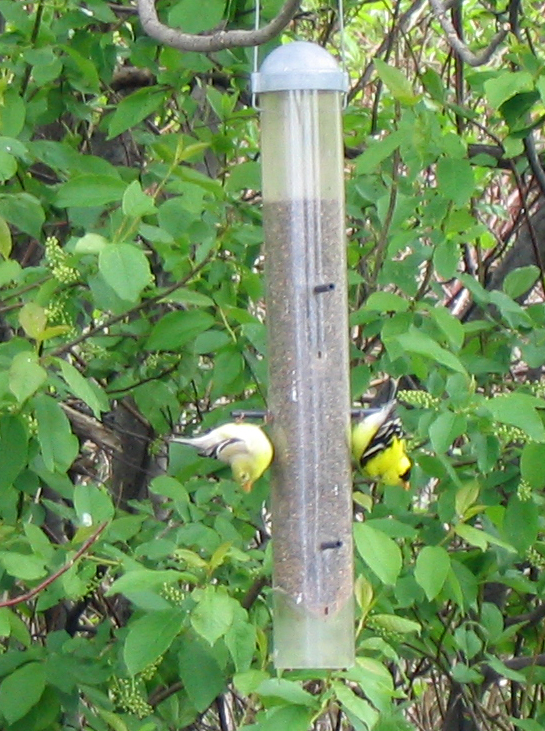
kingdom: Animalia
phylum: Chordata
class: Aves
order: Passeriformes
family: Fringillidae
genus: Spinus
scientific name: Spinus tristis
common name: American goldfinch
